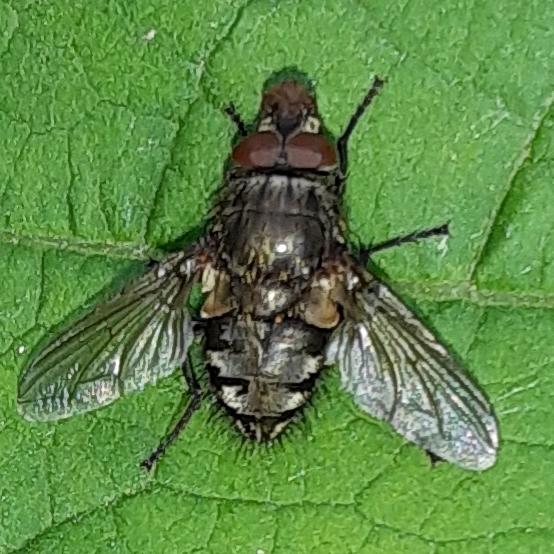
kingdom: Animalia
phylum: Arthropoda
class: Insecta
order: Diptera
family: Polleniidae
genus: Pollenia
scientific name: Pollenia
